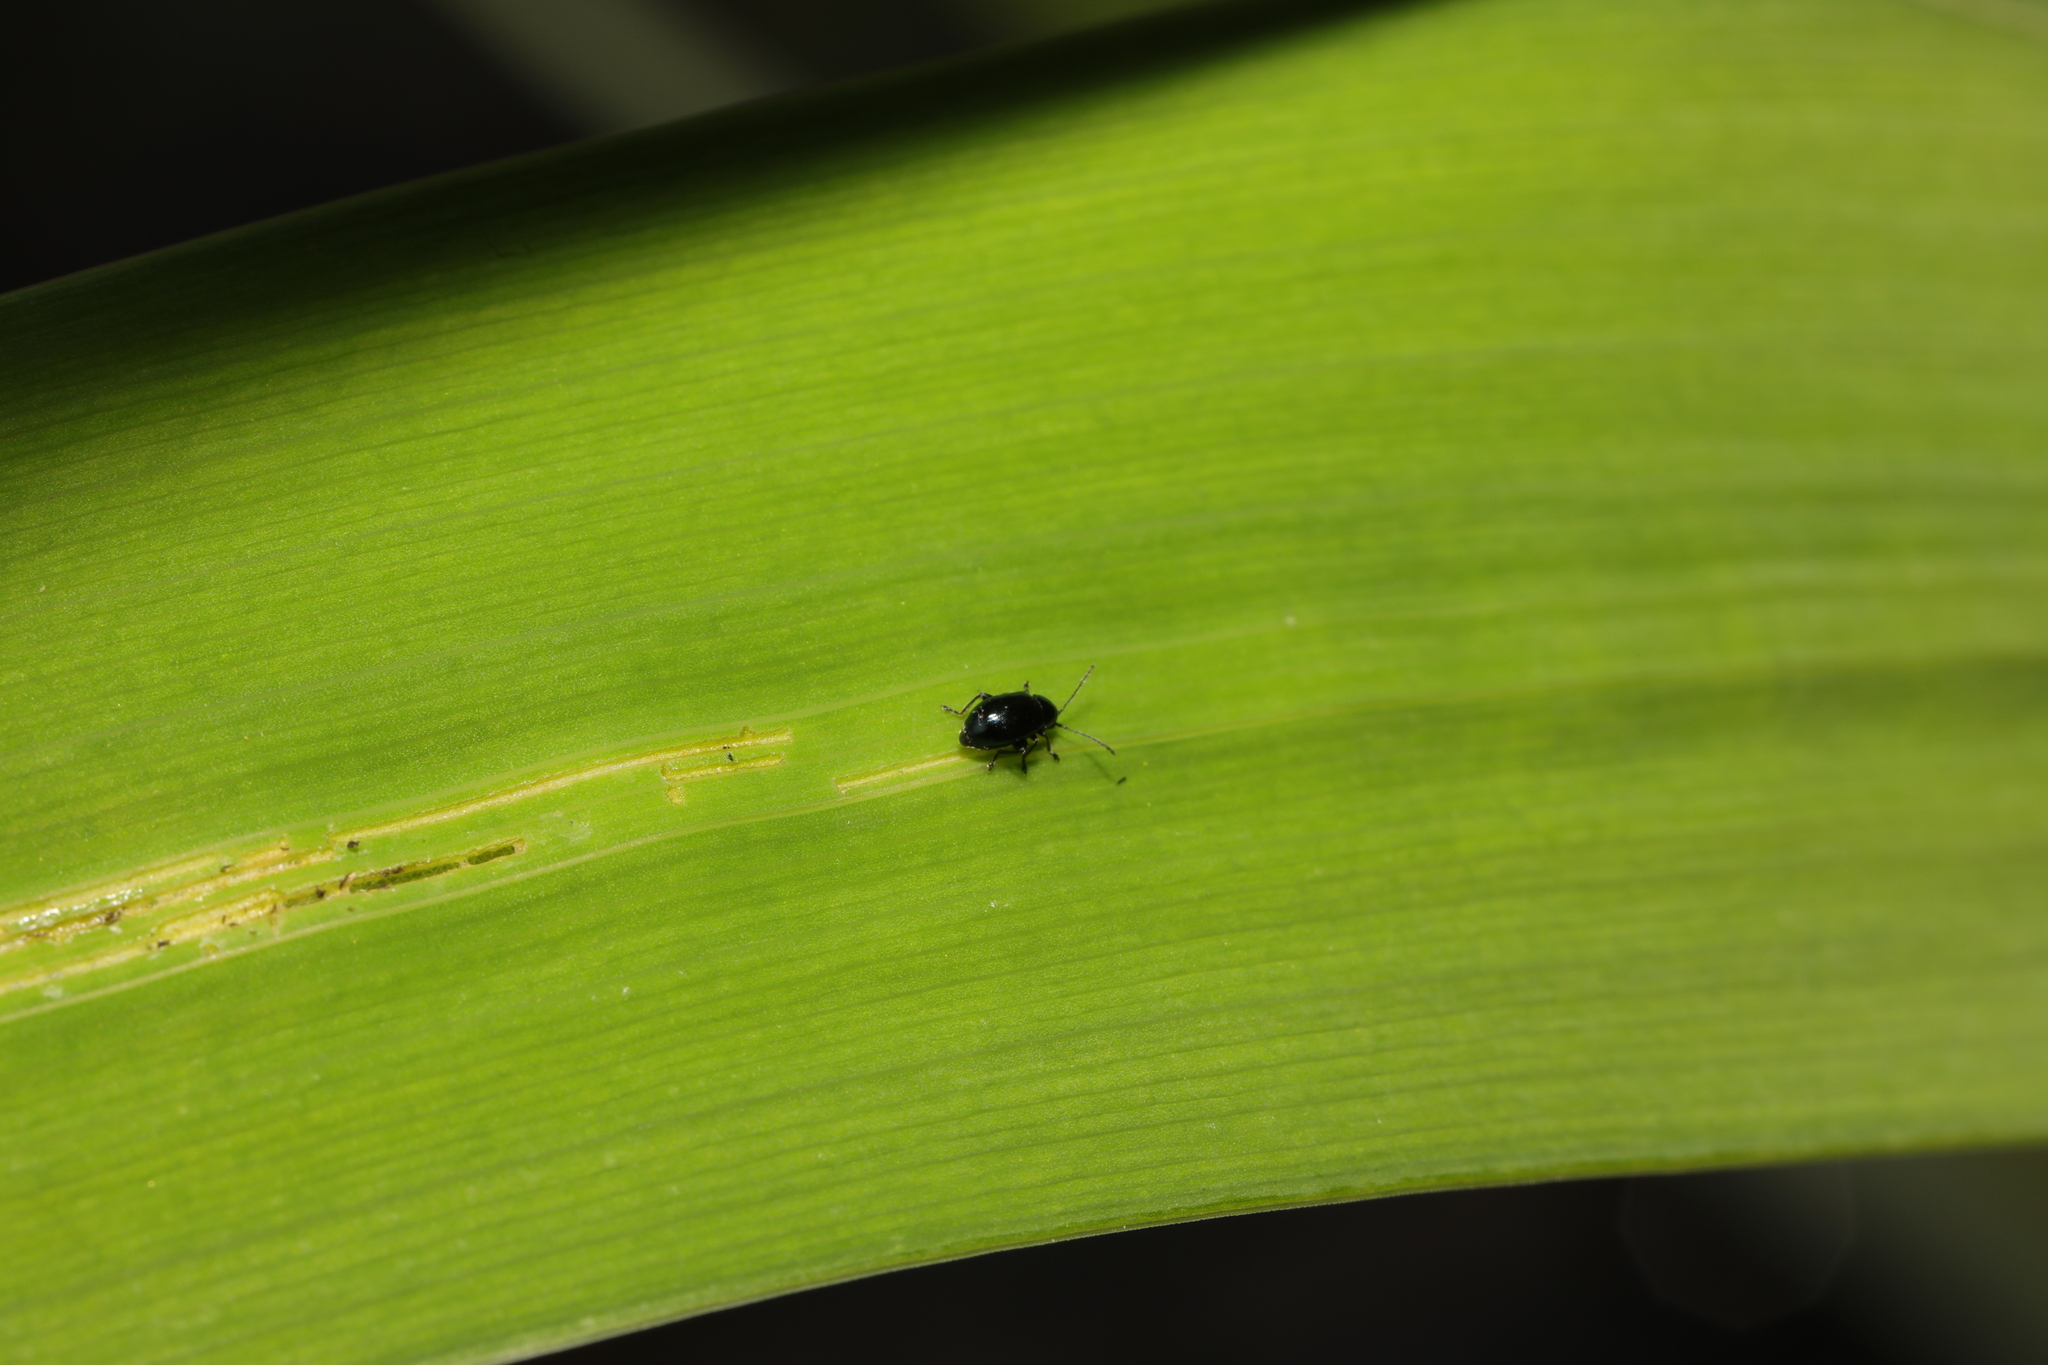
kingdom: Animalia
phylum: Arthropoda
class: Insecta
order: Coleoptera
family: Chrysomelidae
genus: Aphthona
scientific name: Aphthona nonstriata
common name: Iris flea beetle
